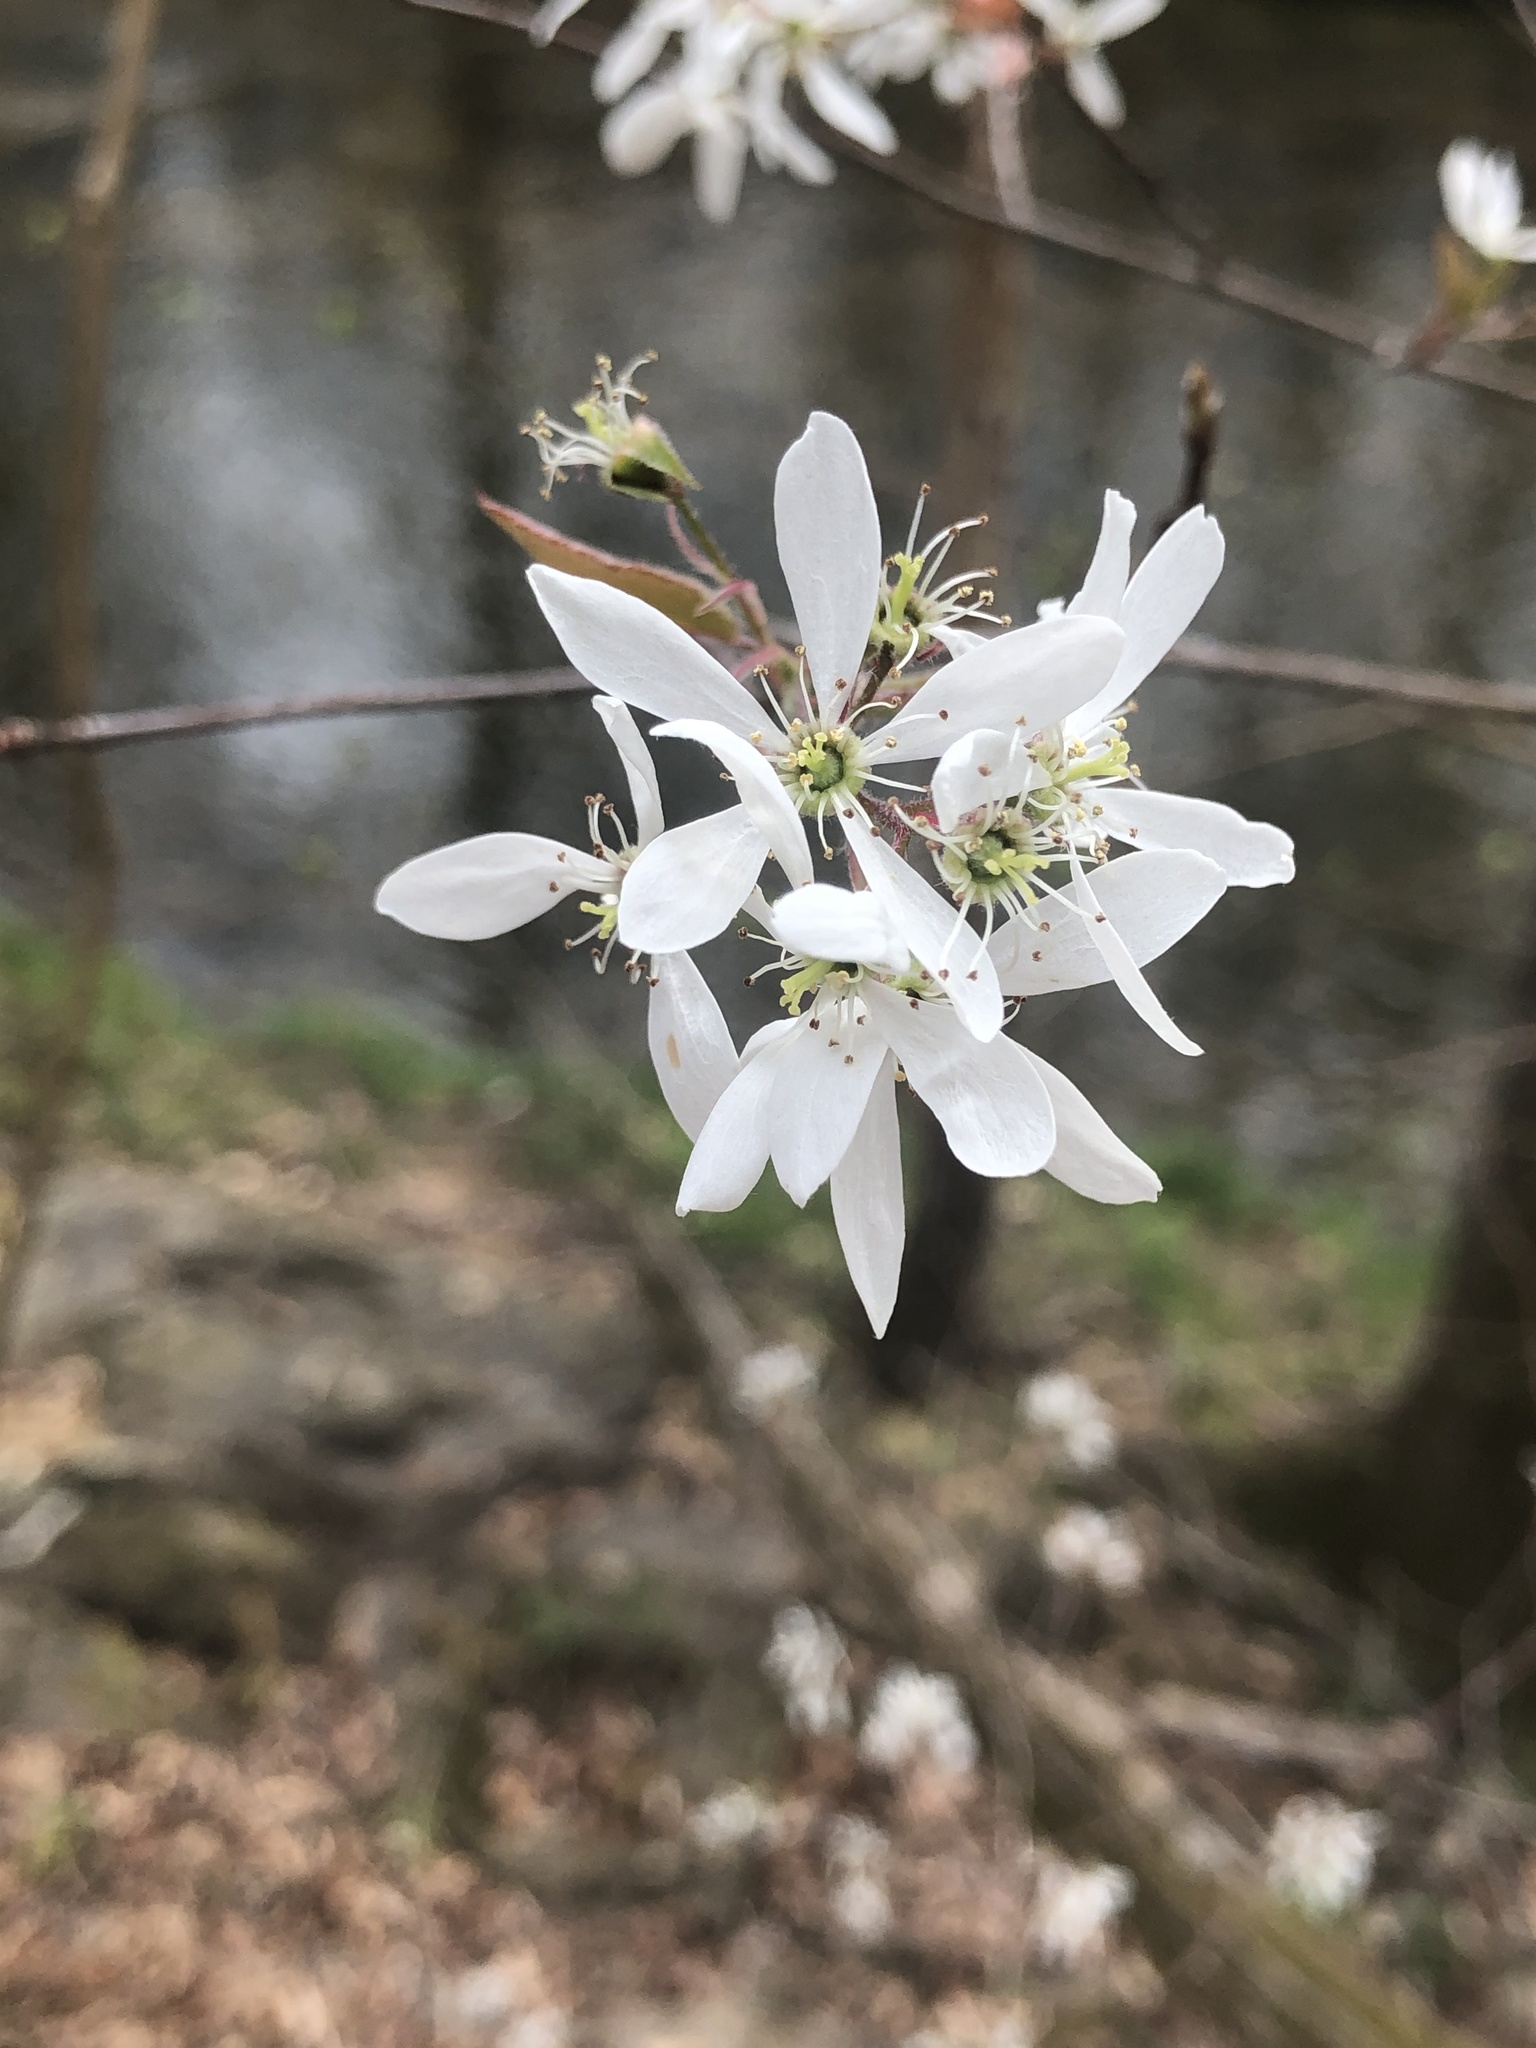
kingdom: Plantae
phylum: Tracheophyta
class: Magnoliopsida
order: Rosales
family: Rosaceae
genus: Amelanchier
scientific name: Amelanchier arborea
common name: Downy serviceberry
